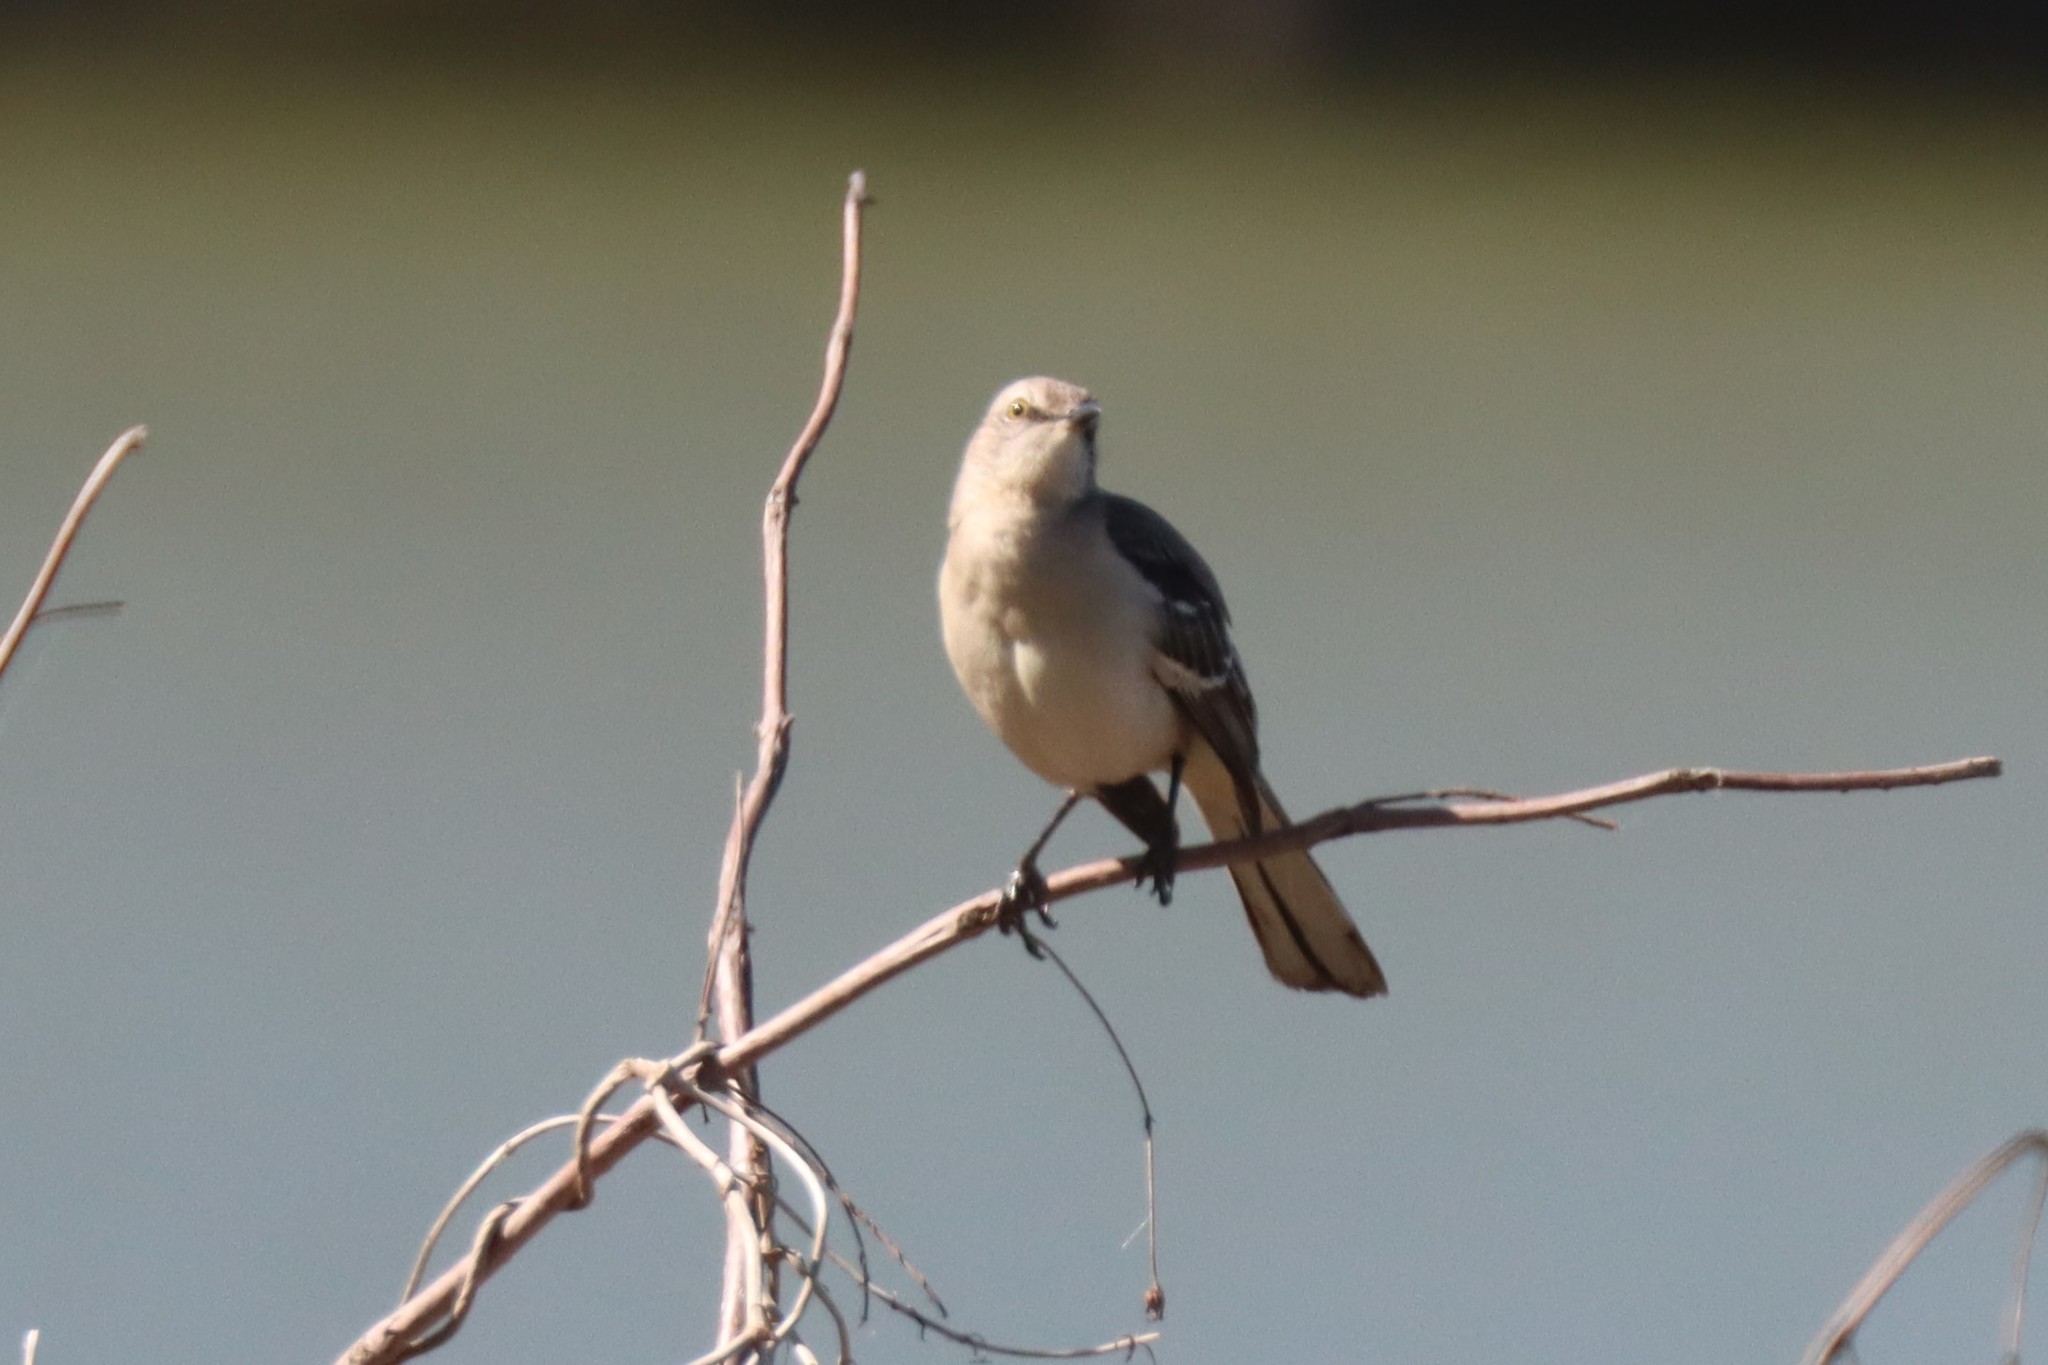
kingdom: Animalia
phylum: Chordata
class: Aves
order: Passeriformes
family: Mimidae
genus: Mimus
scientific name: Mimus polyglottos
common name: Northern mockingbird
